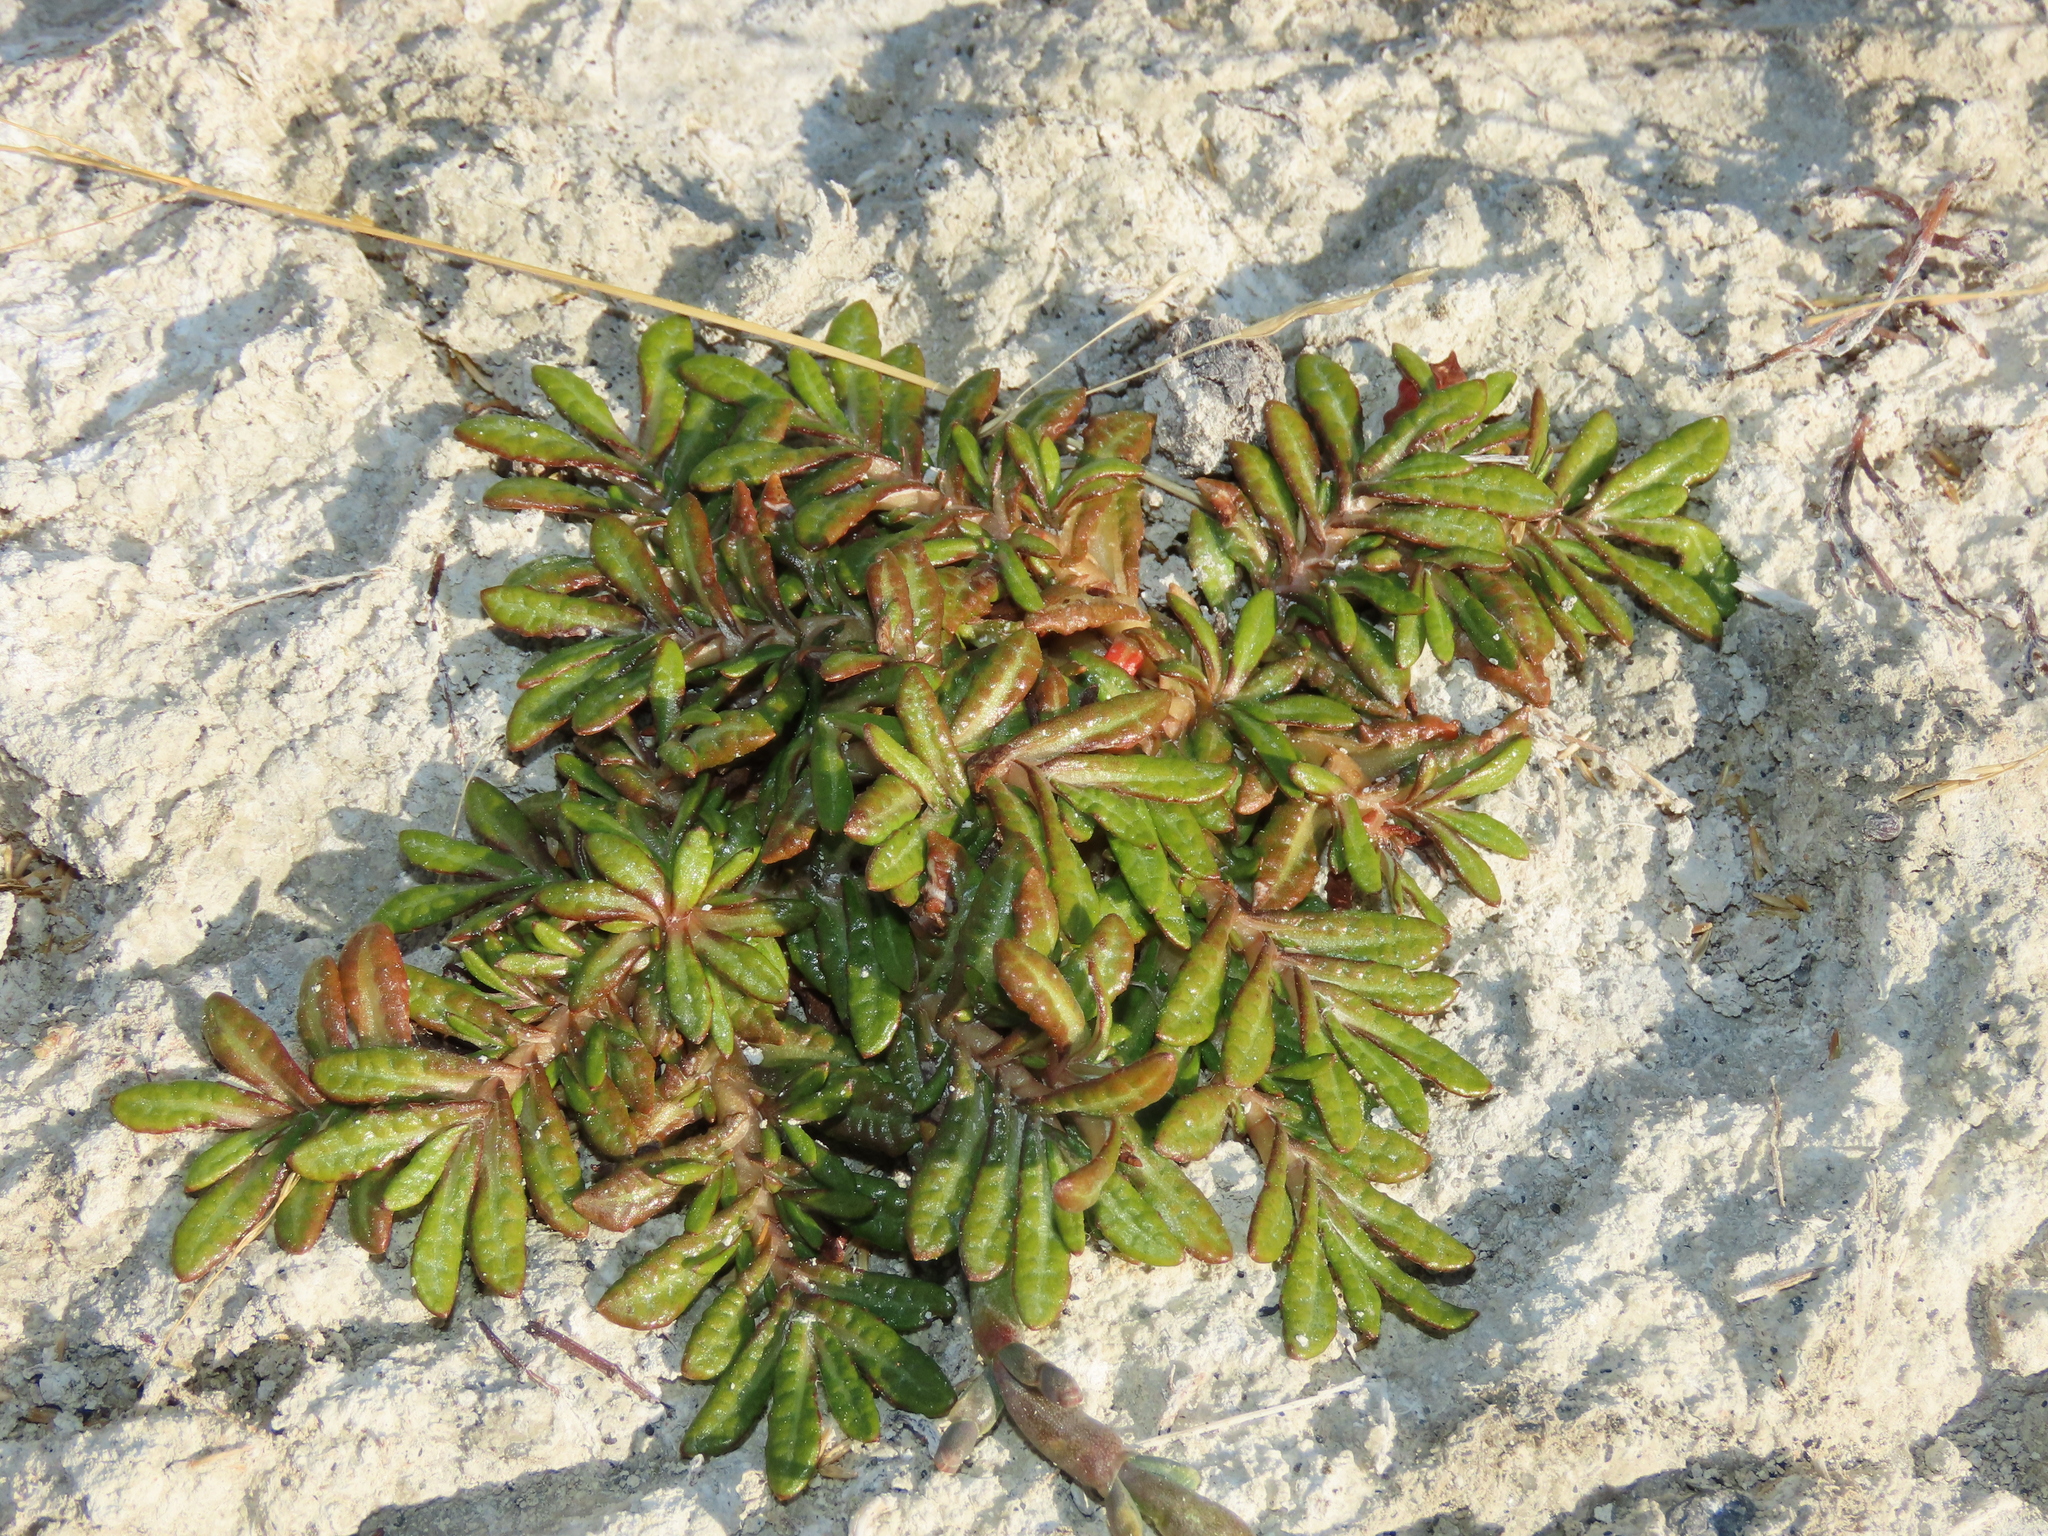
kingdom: Plantae
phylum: Tracheophyta
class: Magnoliopsida
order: Asterales
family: Asteraceae
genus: Eriachaenium
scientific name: Eriachaenium magellanicum
